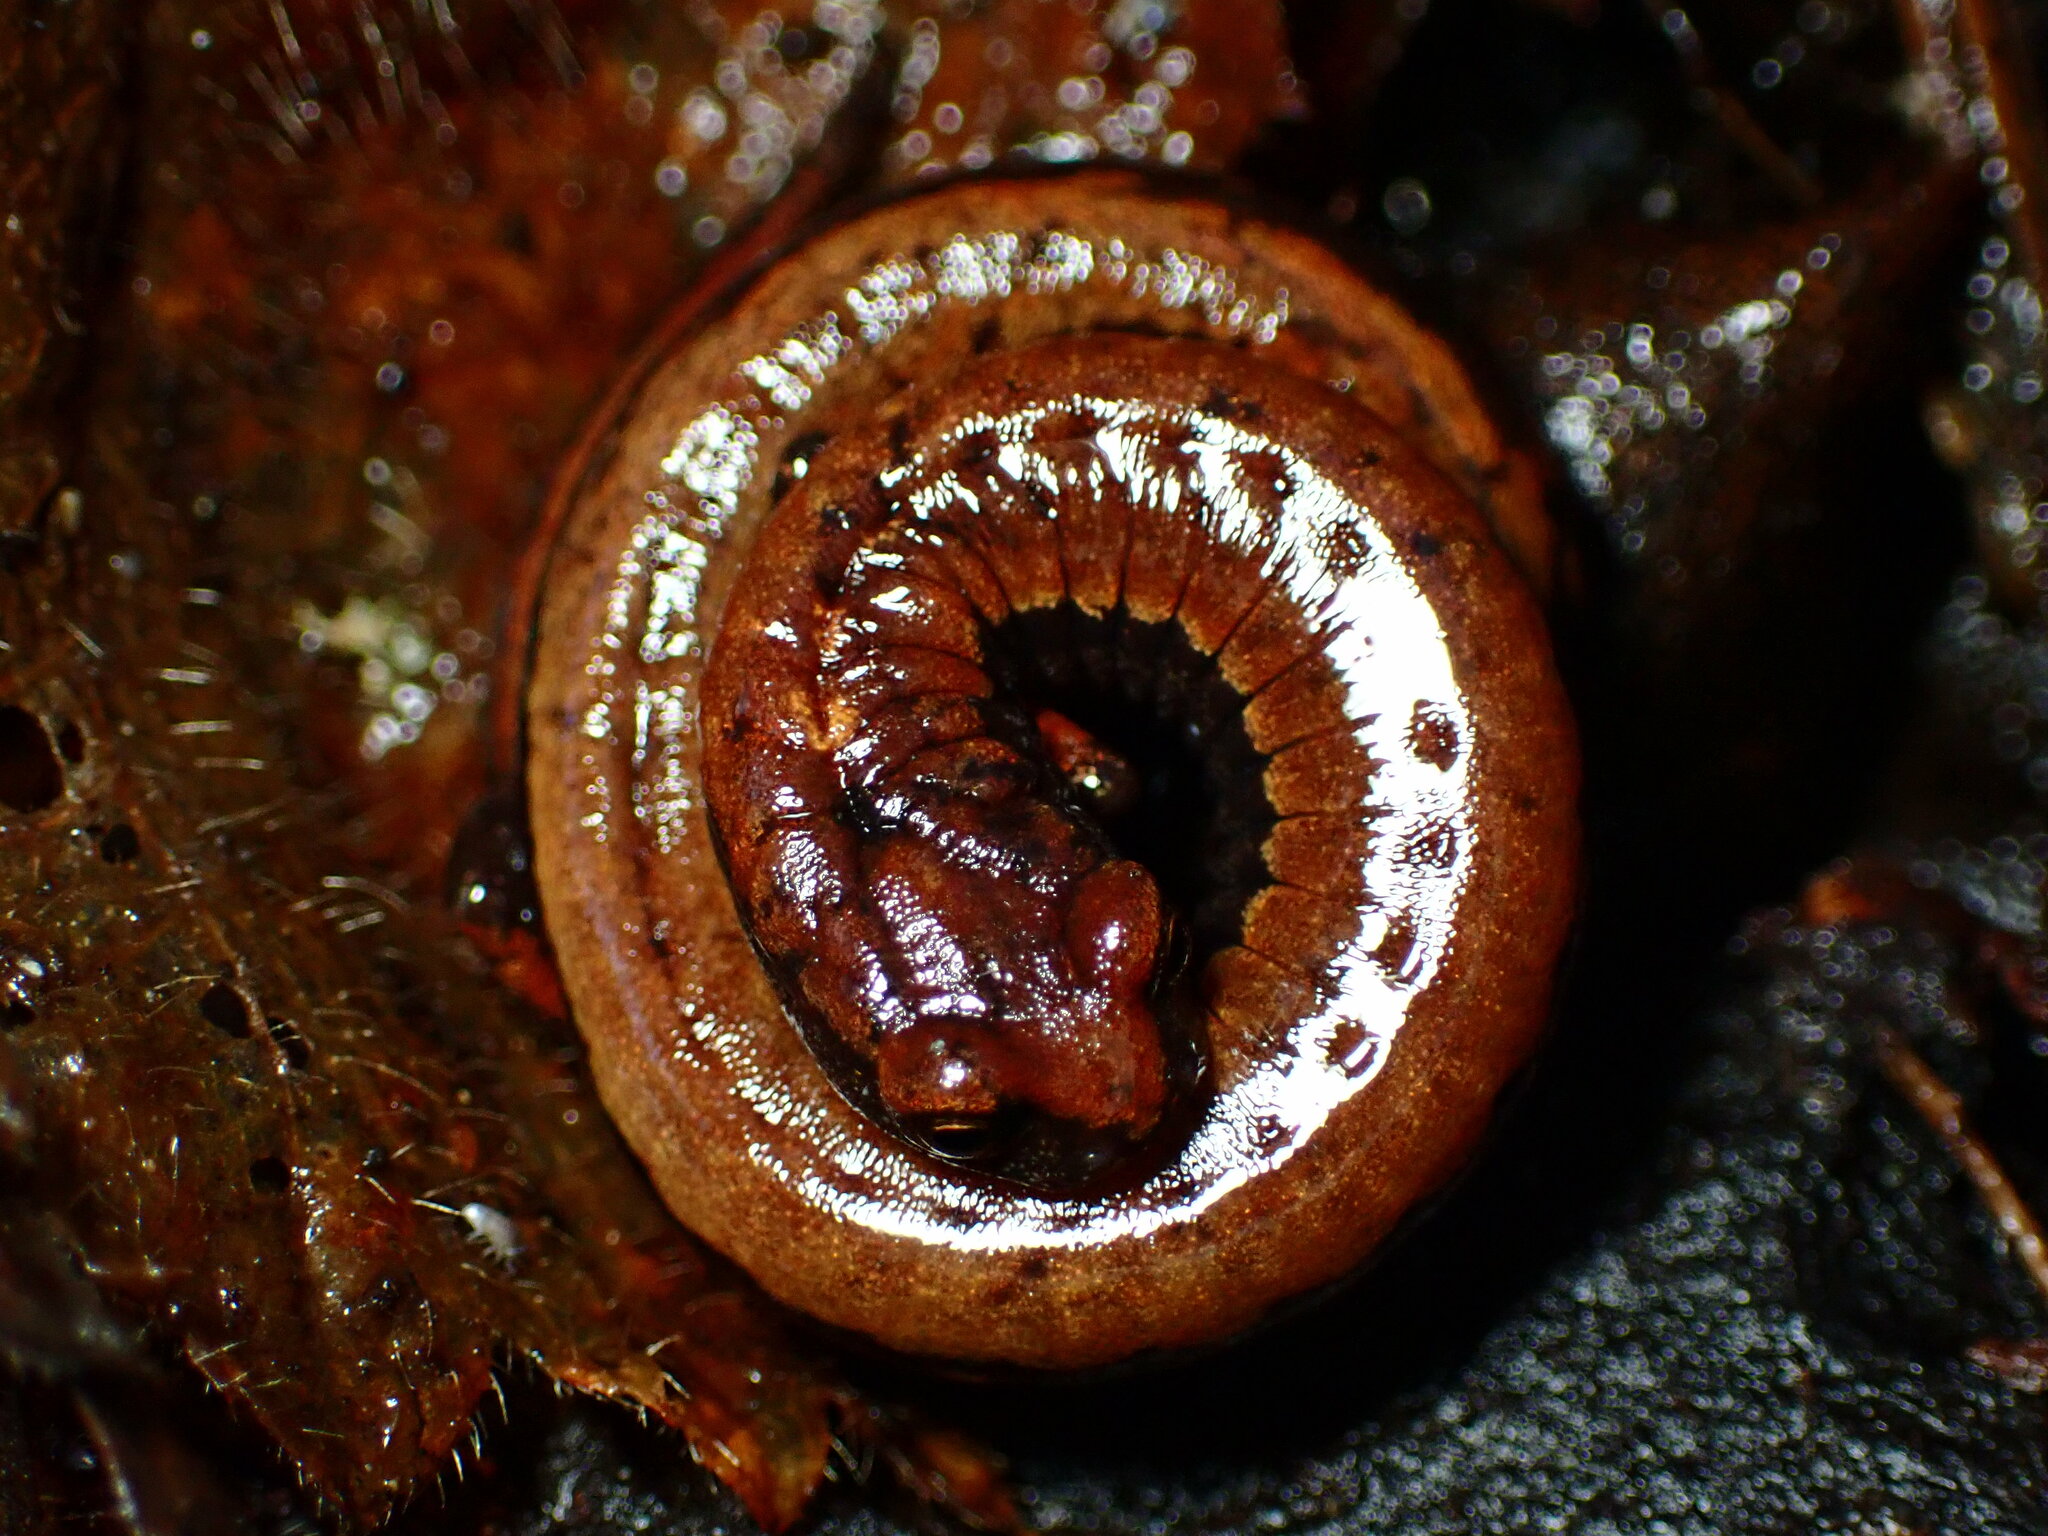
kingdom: Animalia
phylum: Chordata
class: Amphibia
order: Caudata
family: Plethodontidae
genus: Batrachoseps
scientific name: Batrachoseps attenuatus
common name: California slender salamander
